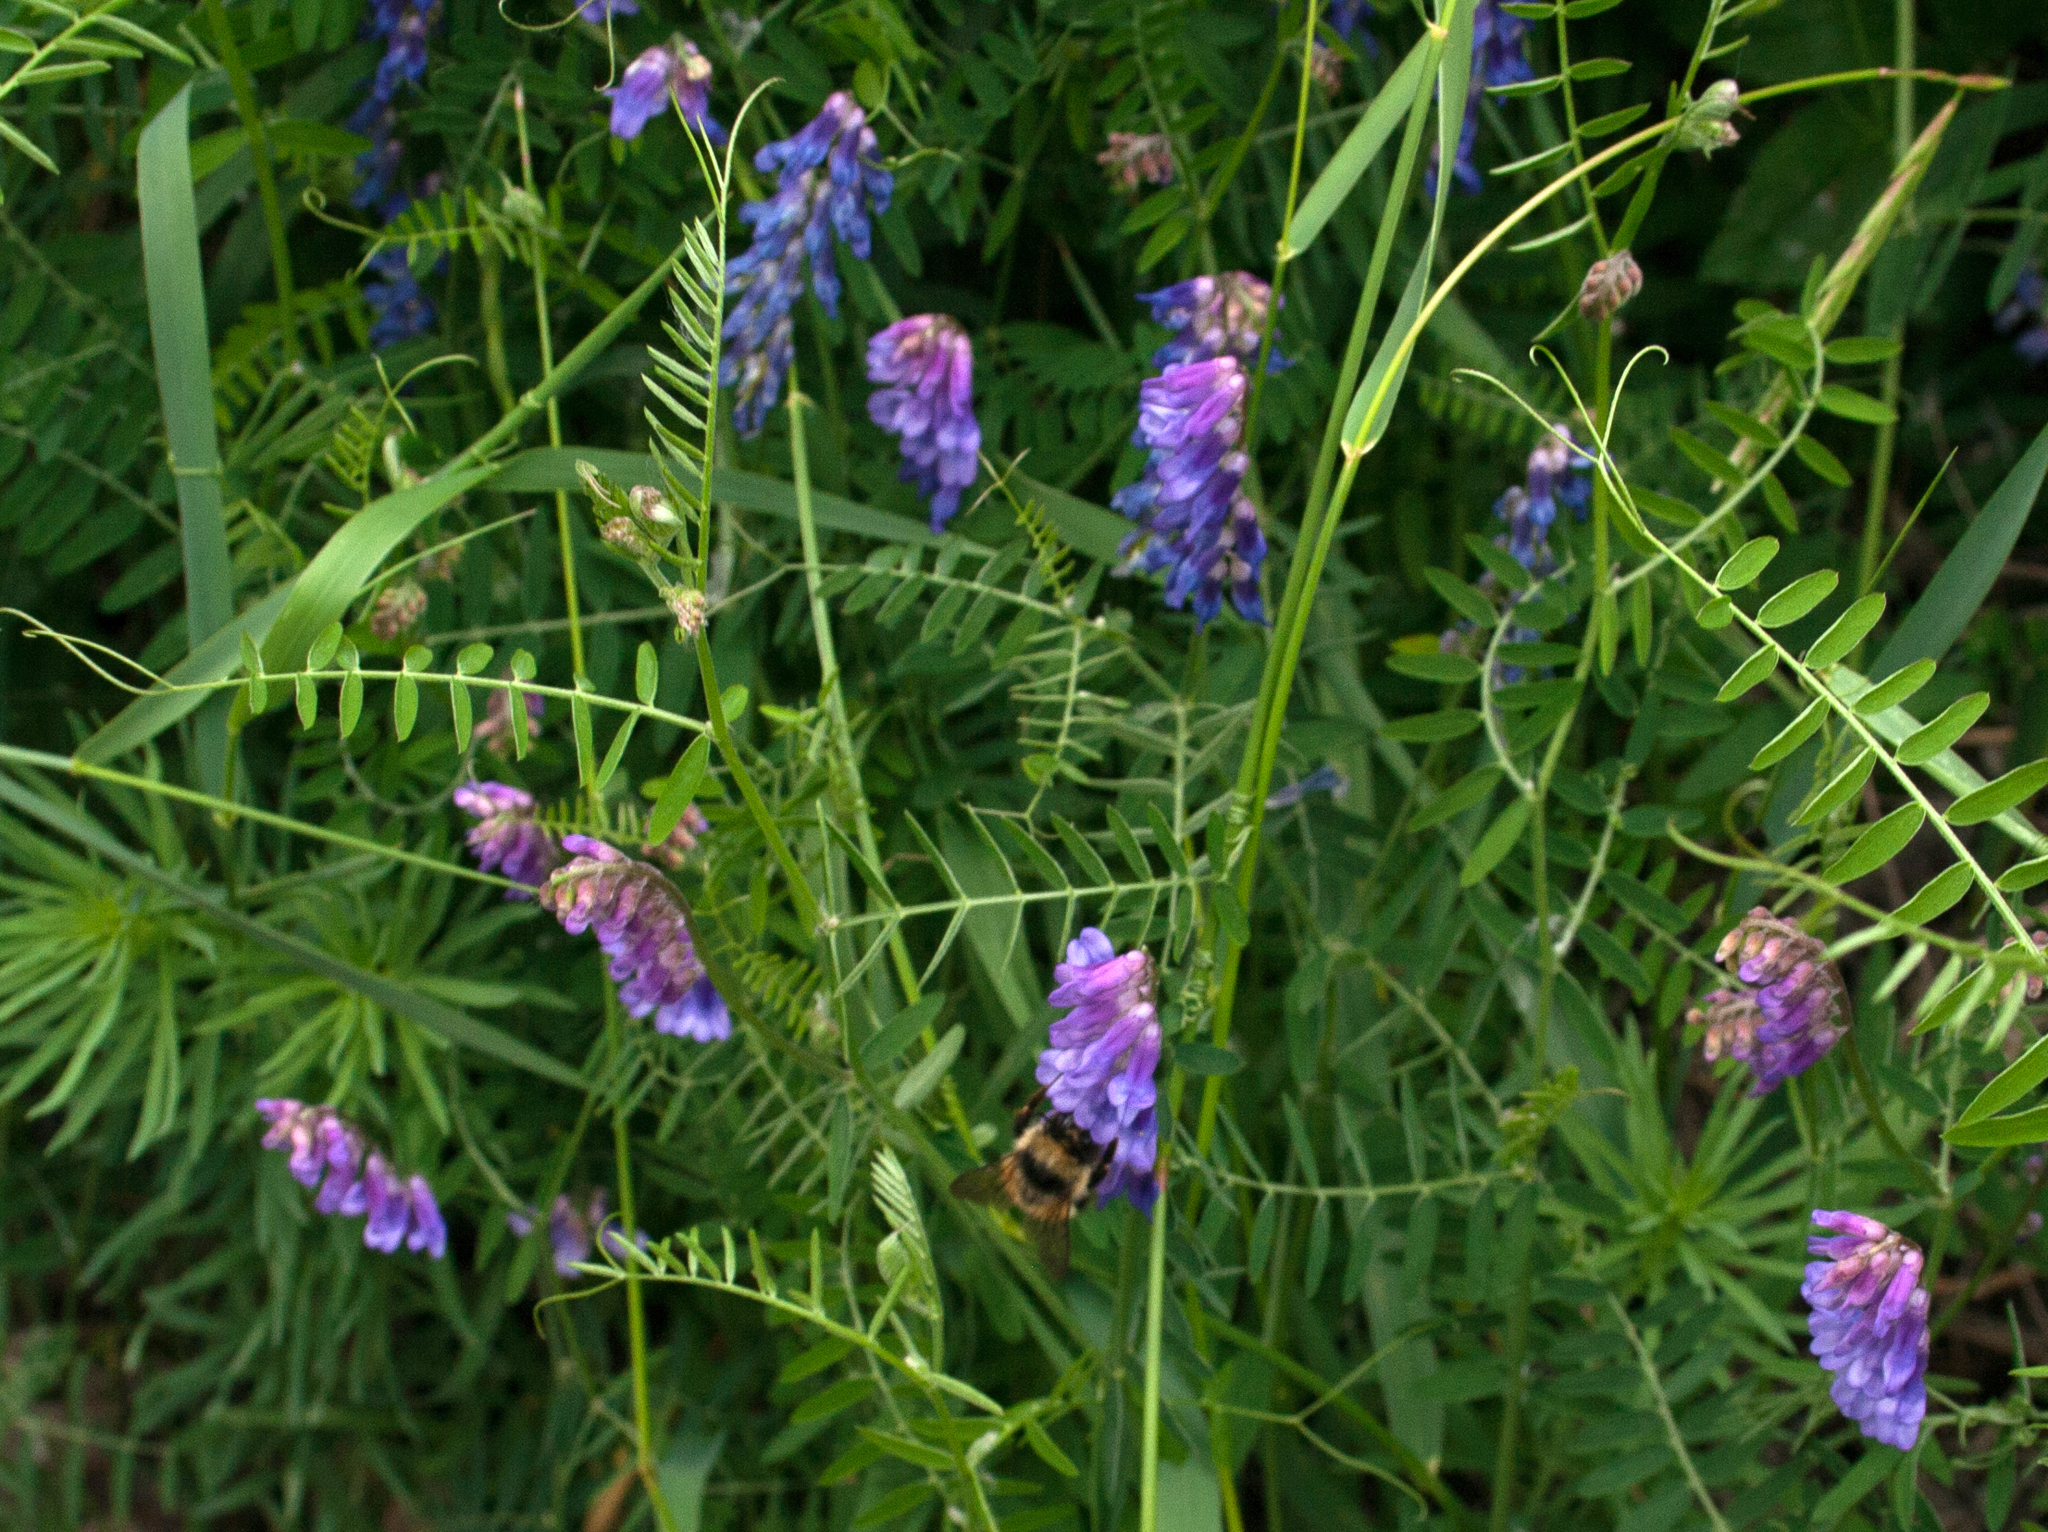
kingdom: Plantae
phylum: Tracheophyta
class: Magnoliopsida
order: Fabales
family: Fabaceae
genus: Vicia
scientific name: Vicia cracca
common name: Bird vetch
